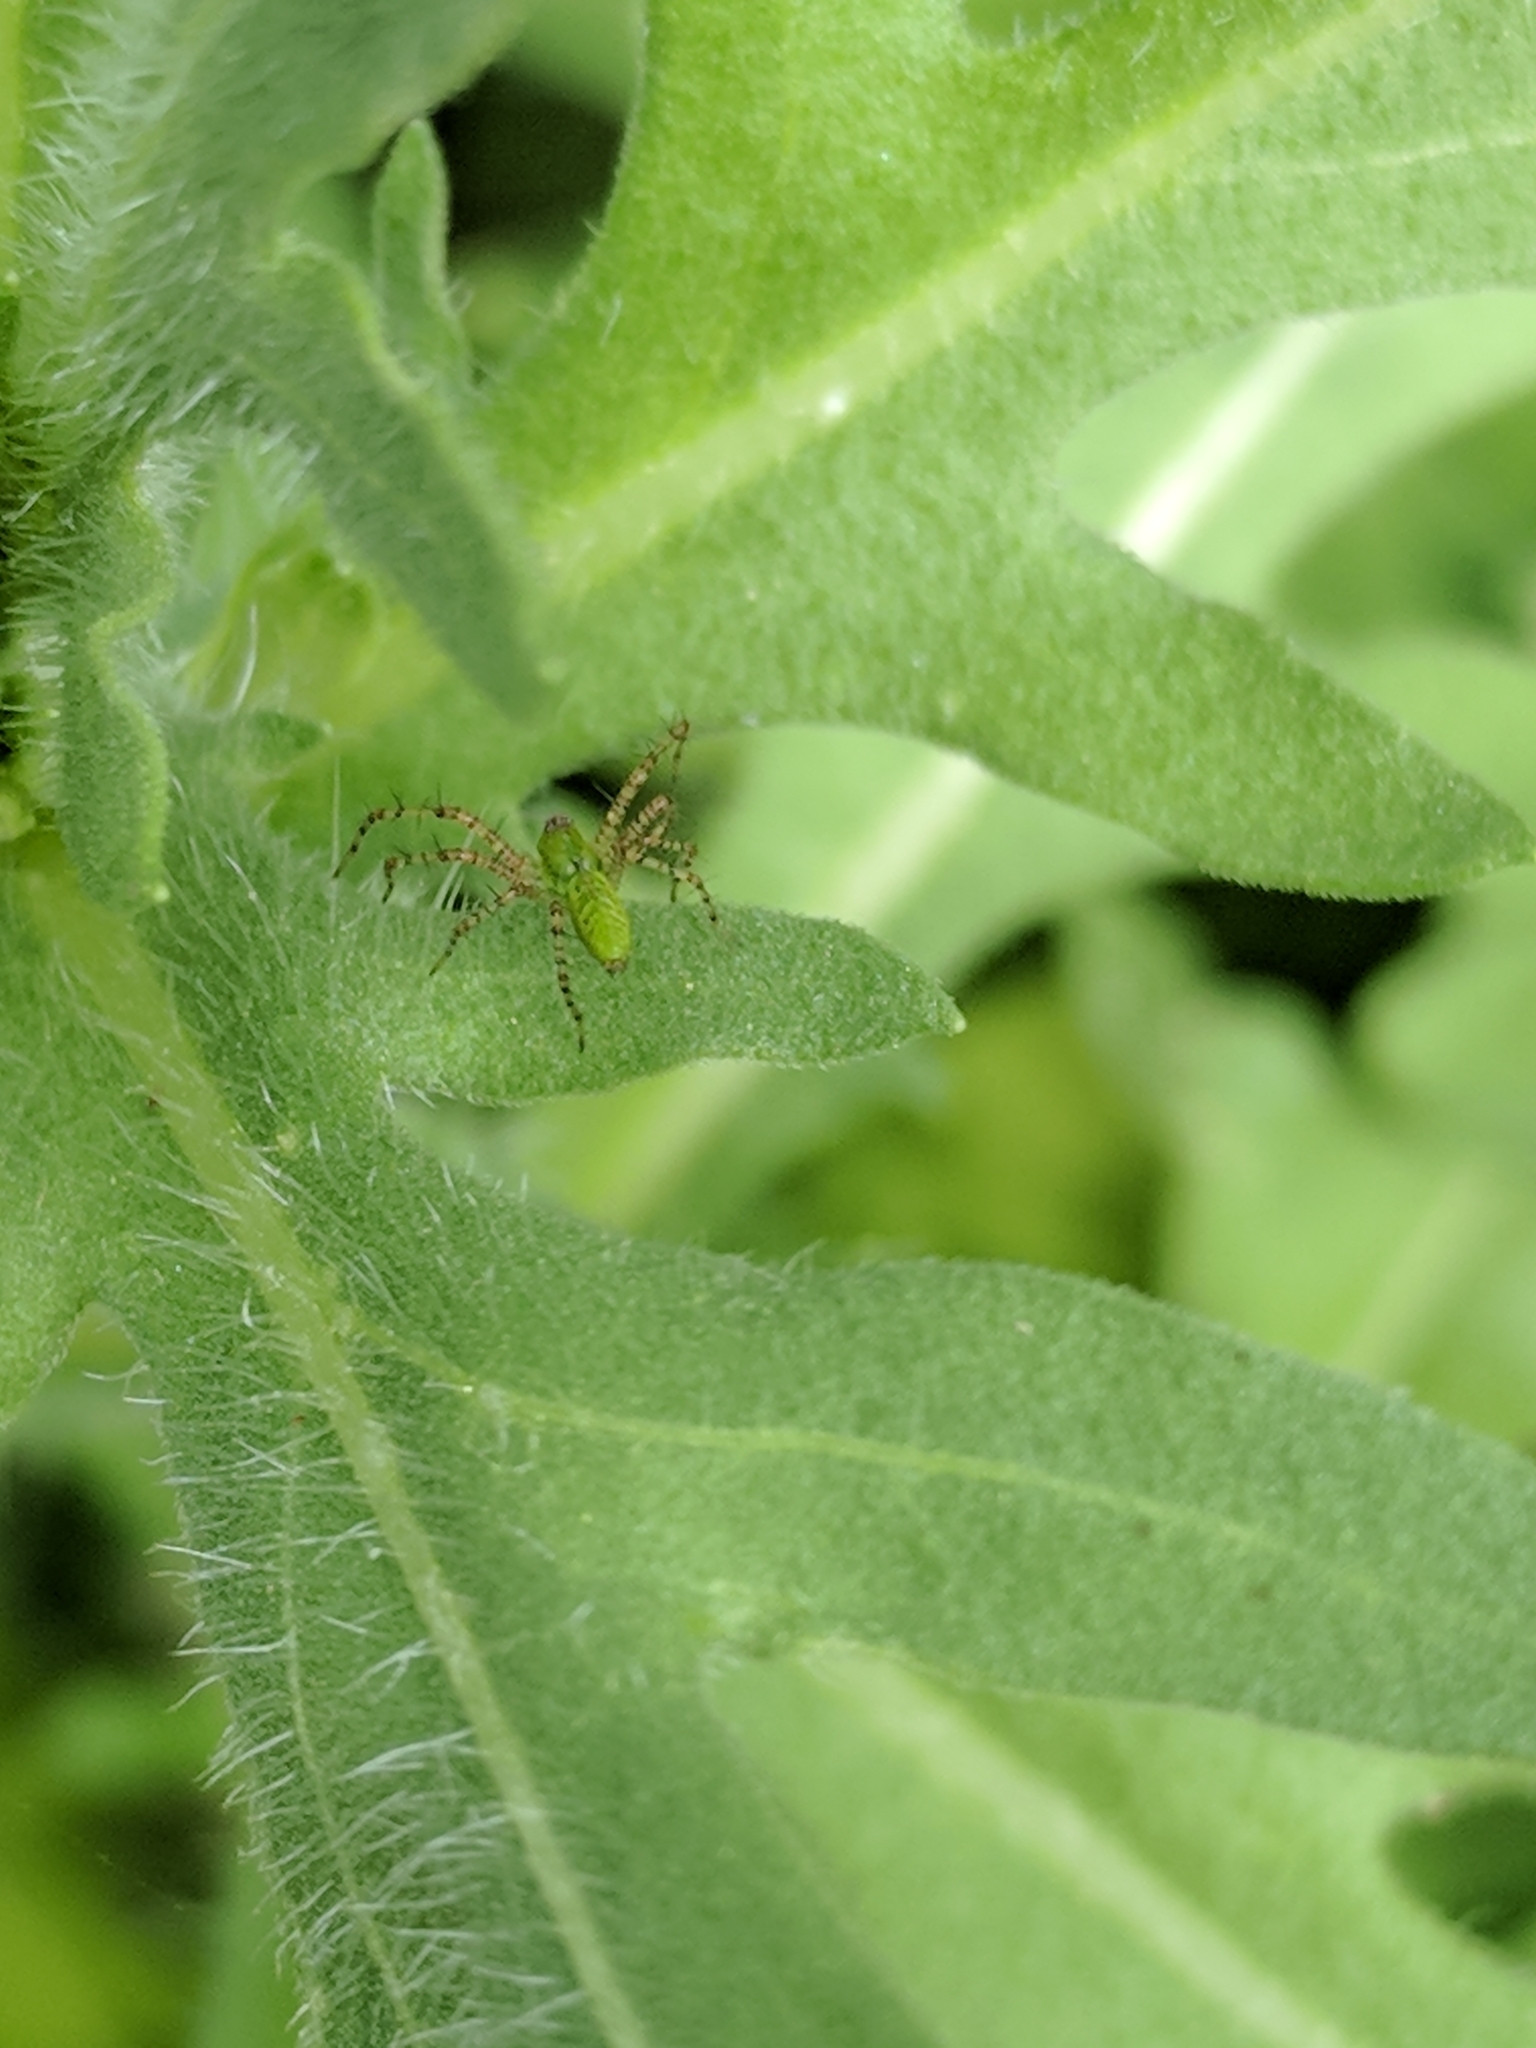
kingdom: Animalia
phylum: Arthropoda
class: Arachnida
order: Araneae
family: Oxyopidae
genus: Peucetia
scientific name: Peucetia viridans
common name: Lynx spiders
